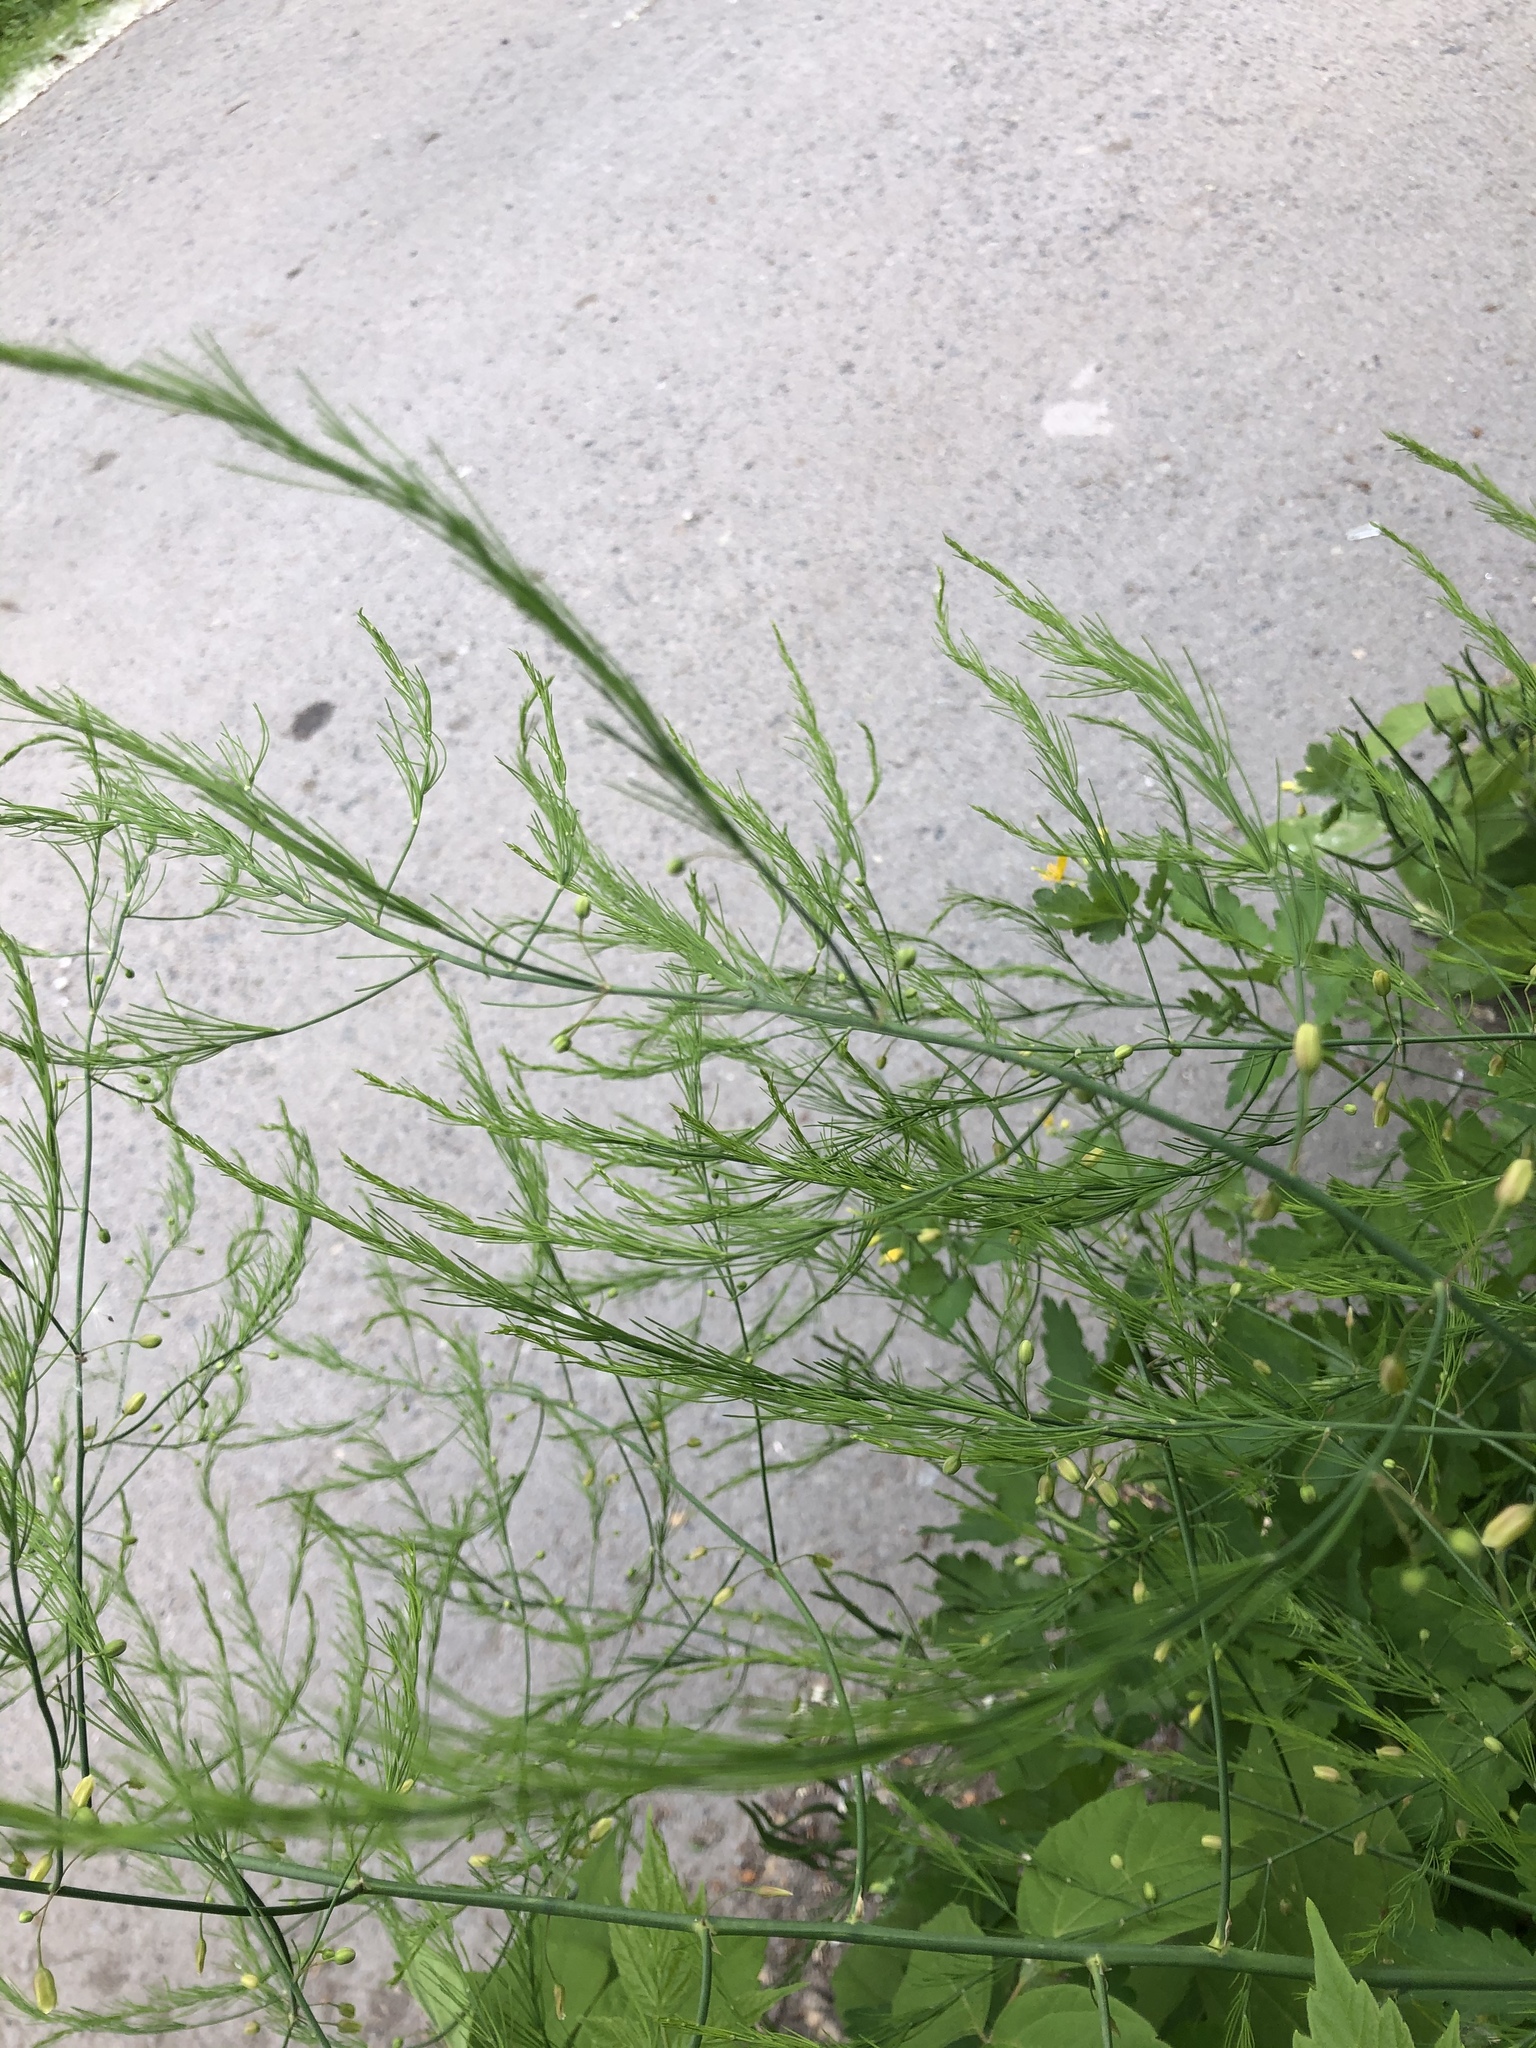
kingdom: Plantae
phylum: Tracheophyta
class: Liliopsida
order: Asparagales
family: Asparagaceae
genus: Asparagus
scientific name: Asparagus officinalis
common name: Garden asparagus
